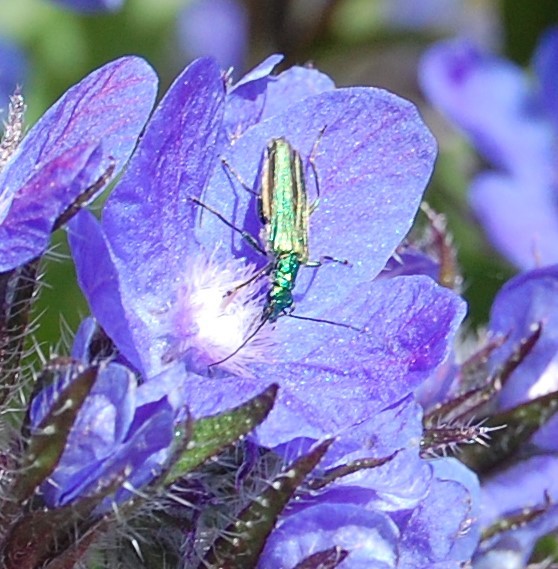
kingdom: Animalia
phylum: Arthropoda
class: Insecta
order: Coleoptera
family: Oedemeridae
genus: Oedemera
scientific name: Oedemera nobilis
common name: Swollen-thighed beetle
